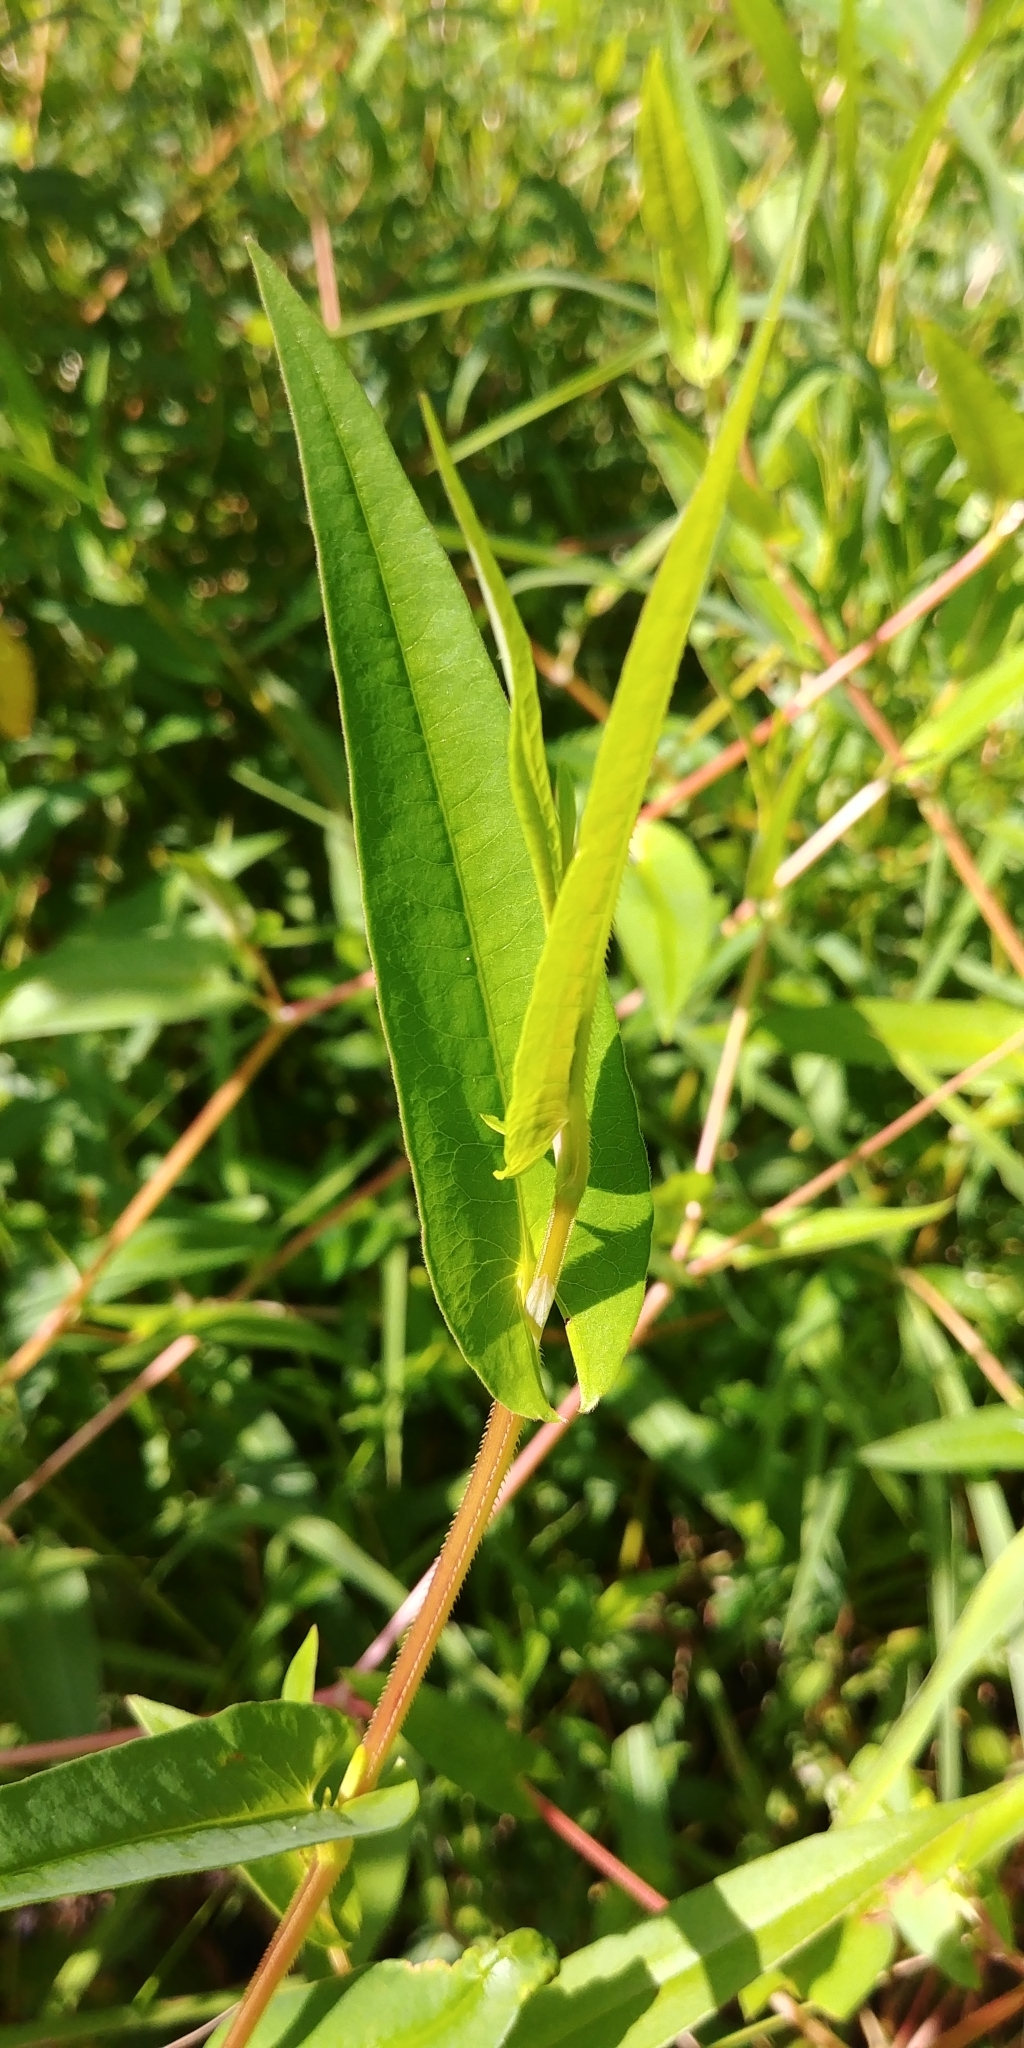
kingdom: Plantae
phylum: Tracheophyta
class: Magnoliopsida
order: Caryophyllales
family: Polygonaceae
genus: Persicaria
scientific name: Persicaria sagittata
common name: American tearthumb
